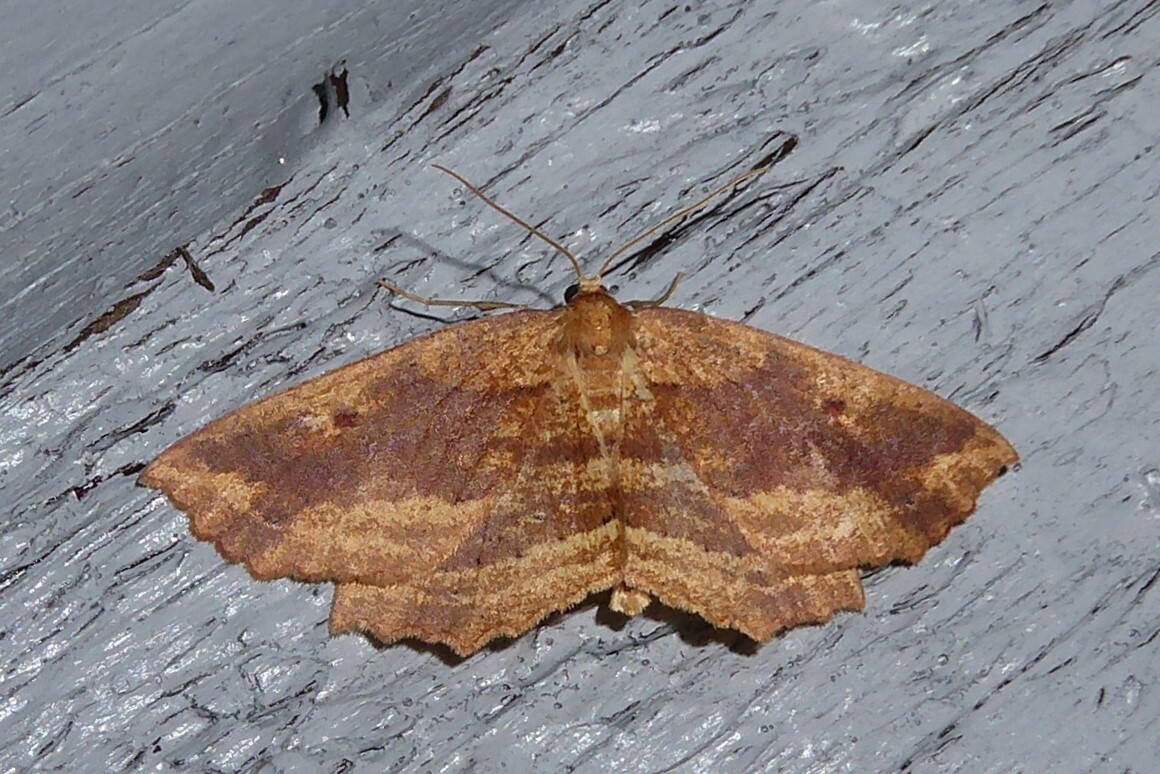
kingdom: Animalia
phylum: Arthropoda
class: Insecta
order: Lepidoptera
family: Geometridae
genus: Xyridacma
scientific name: Xyridacma veronicae
